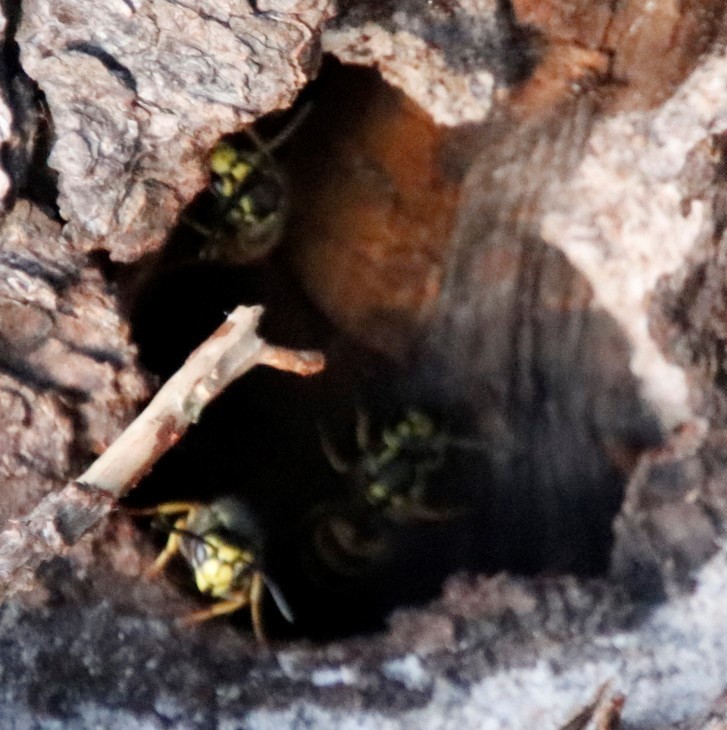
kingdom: Animalia
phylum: Arthropoda
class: Insecta
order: Hymenoptera
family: Vespidae
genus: Vespula
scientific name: Vespula germanica
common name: German wasp
